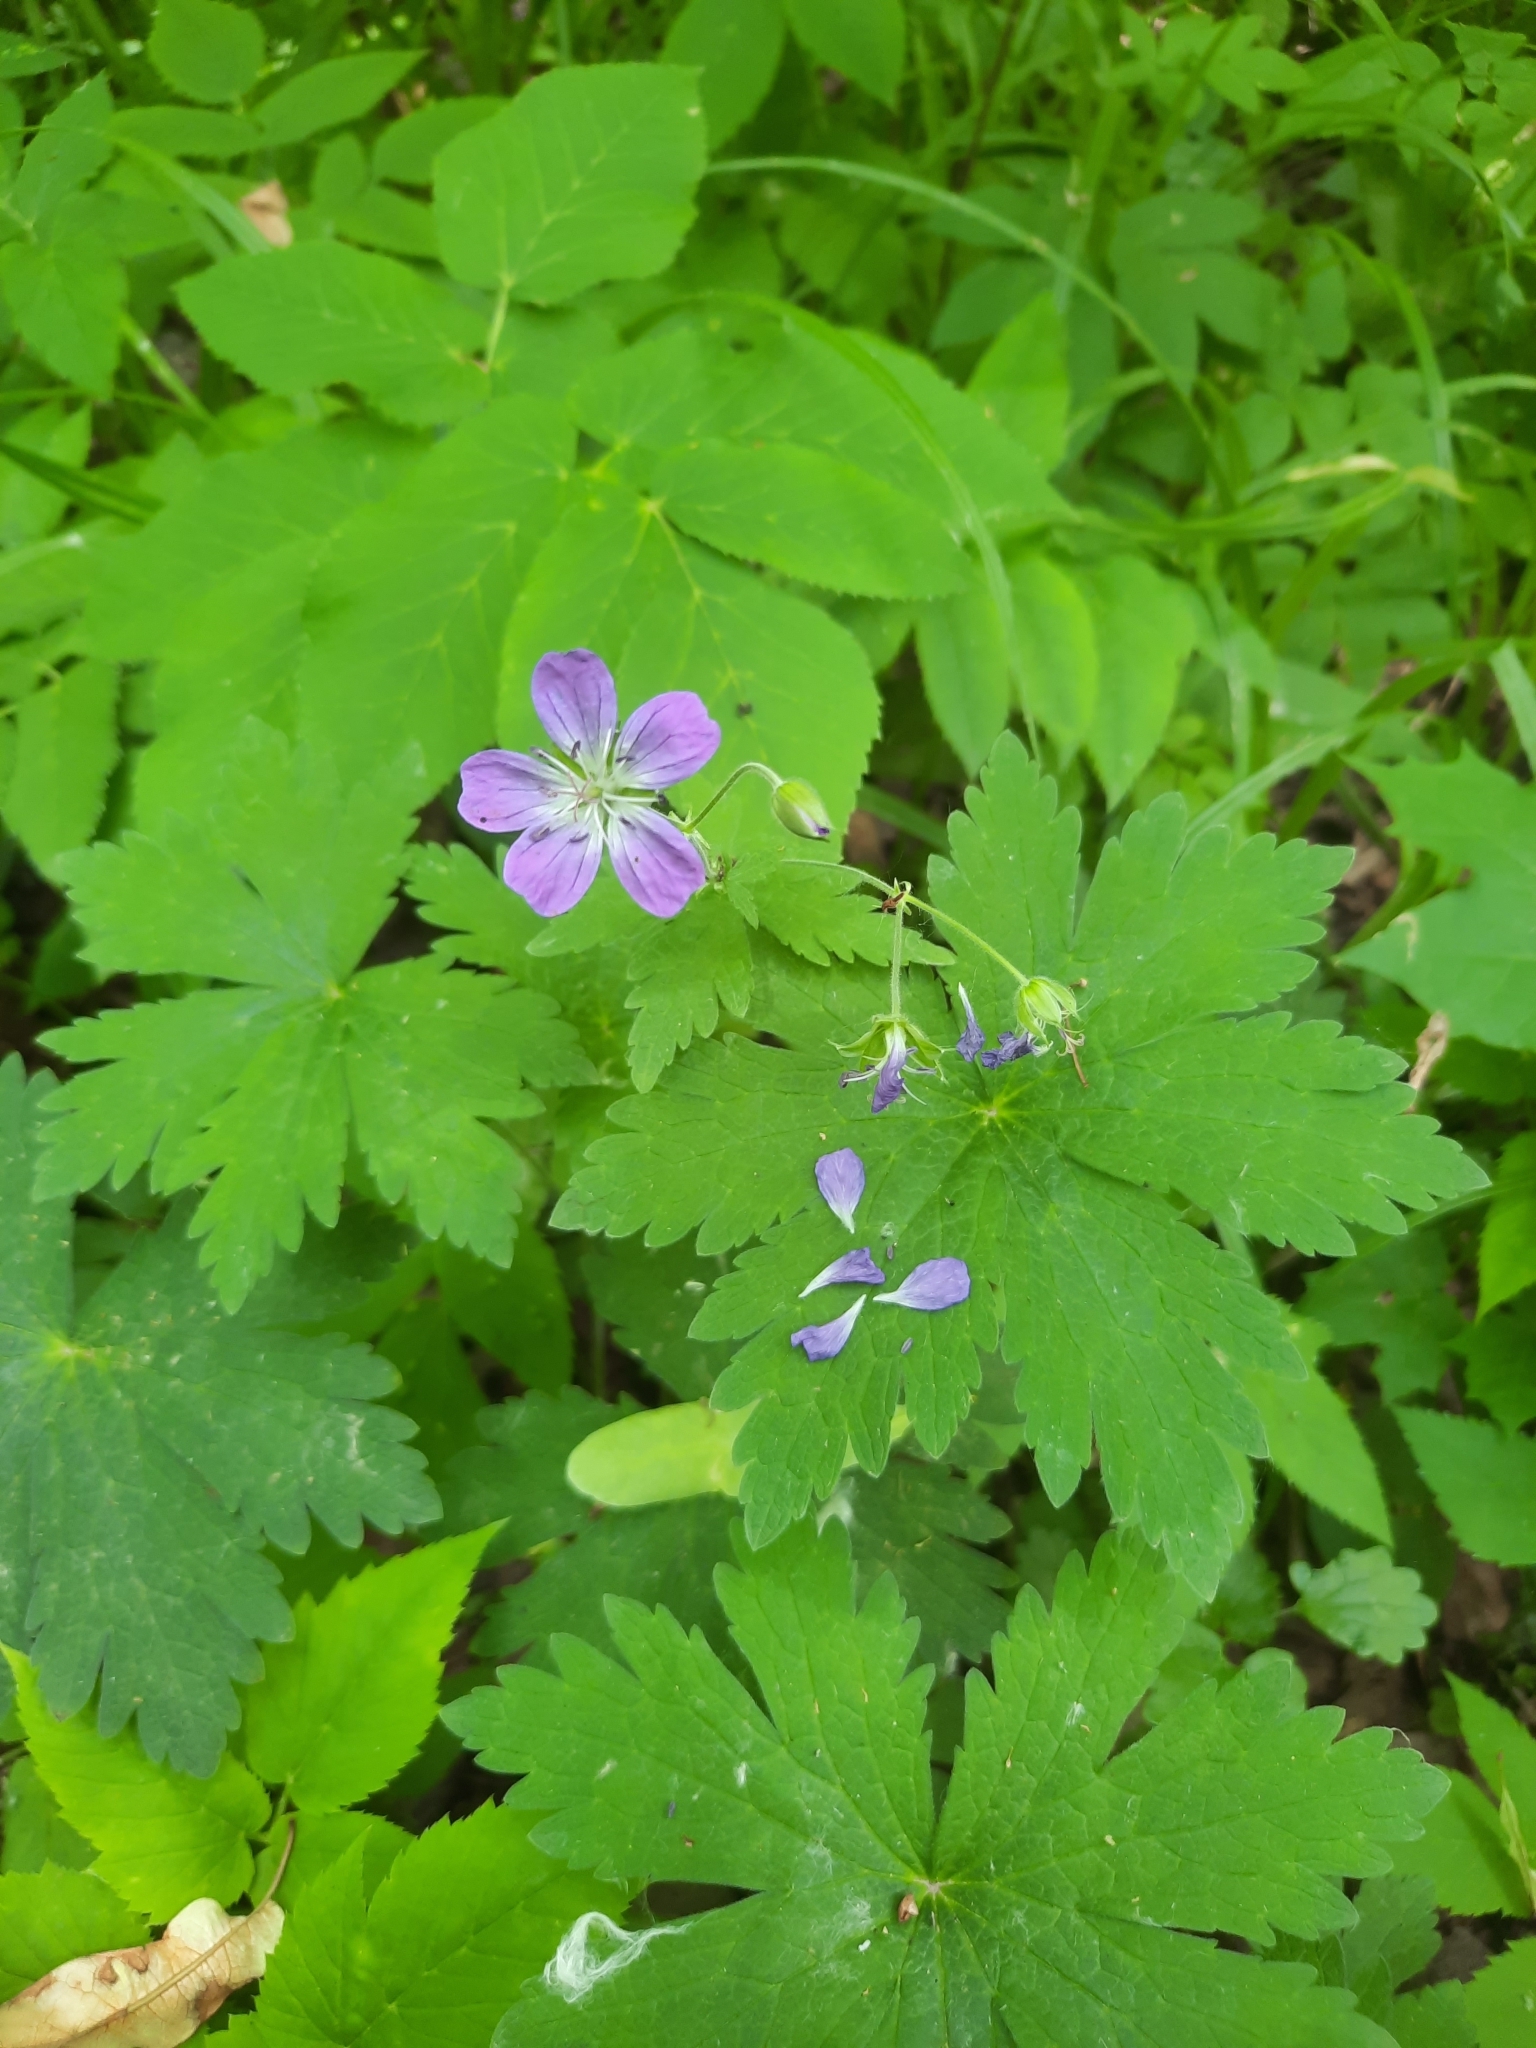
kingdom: Plantae
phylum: Tracheophyta
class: Magnoliopsida
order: Geraniales
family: Geraniaceae
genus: Geranium
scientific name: Geranium sylvaticum
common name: Wood crane's-bill
